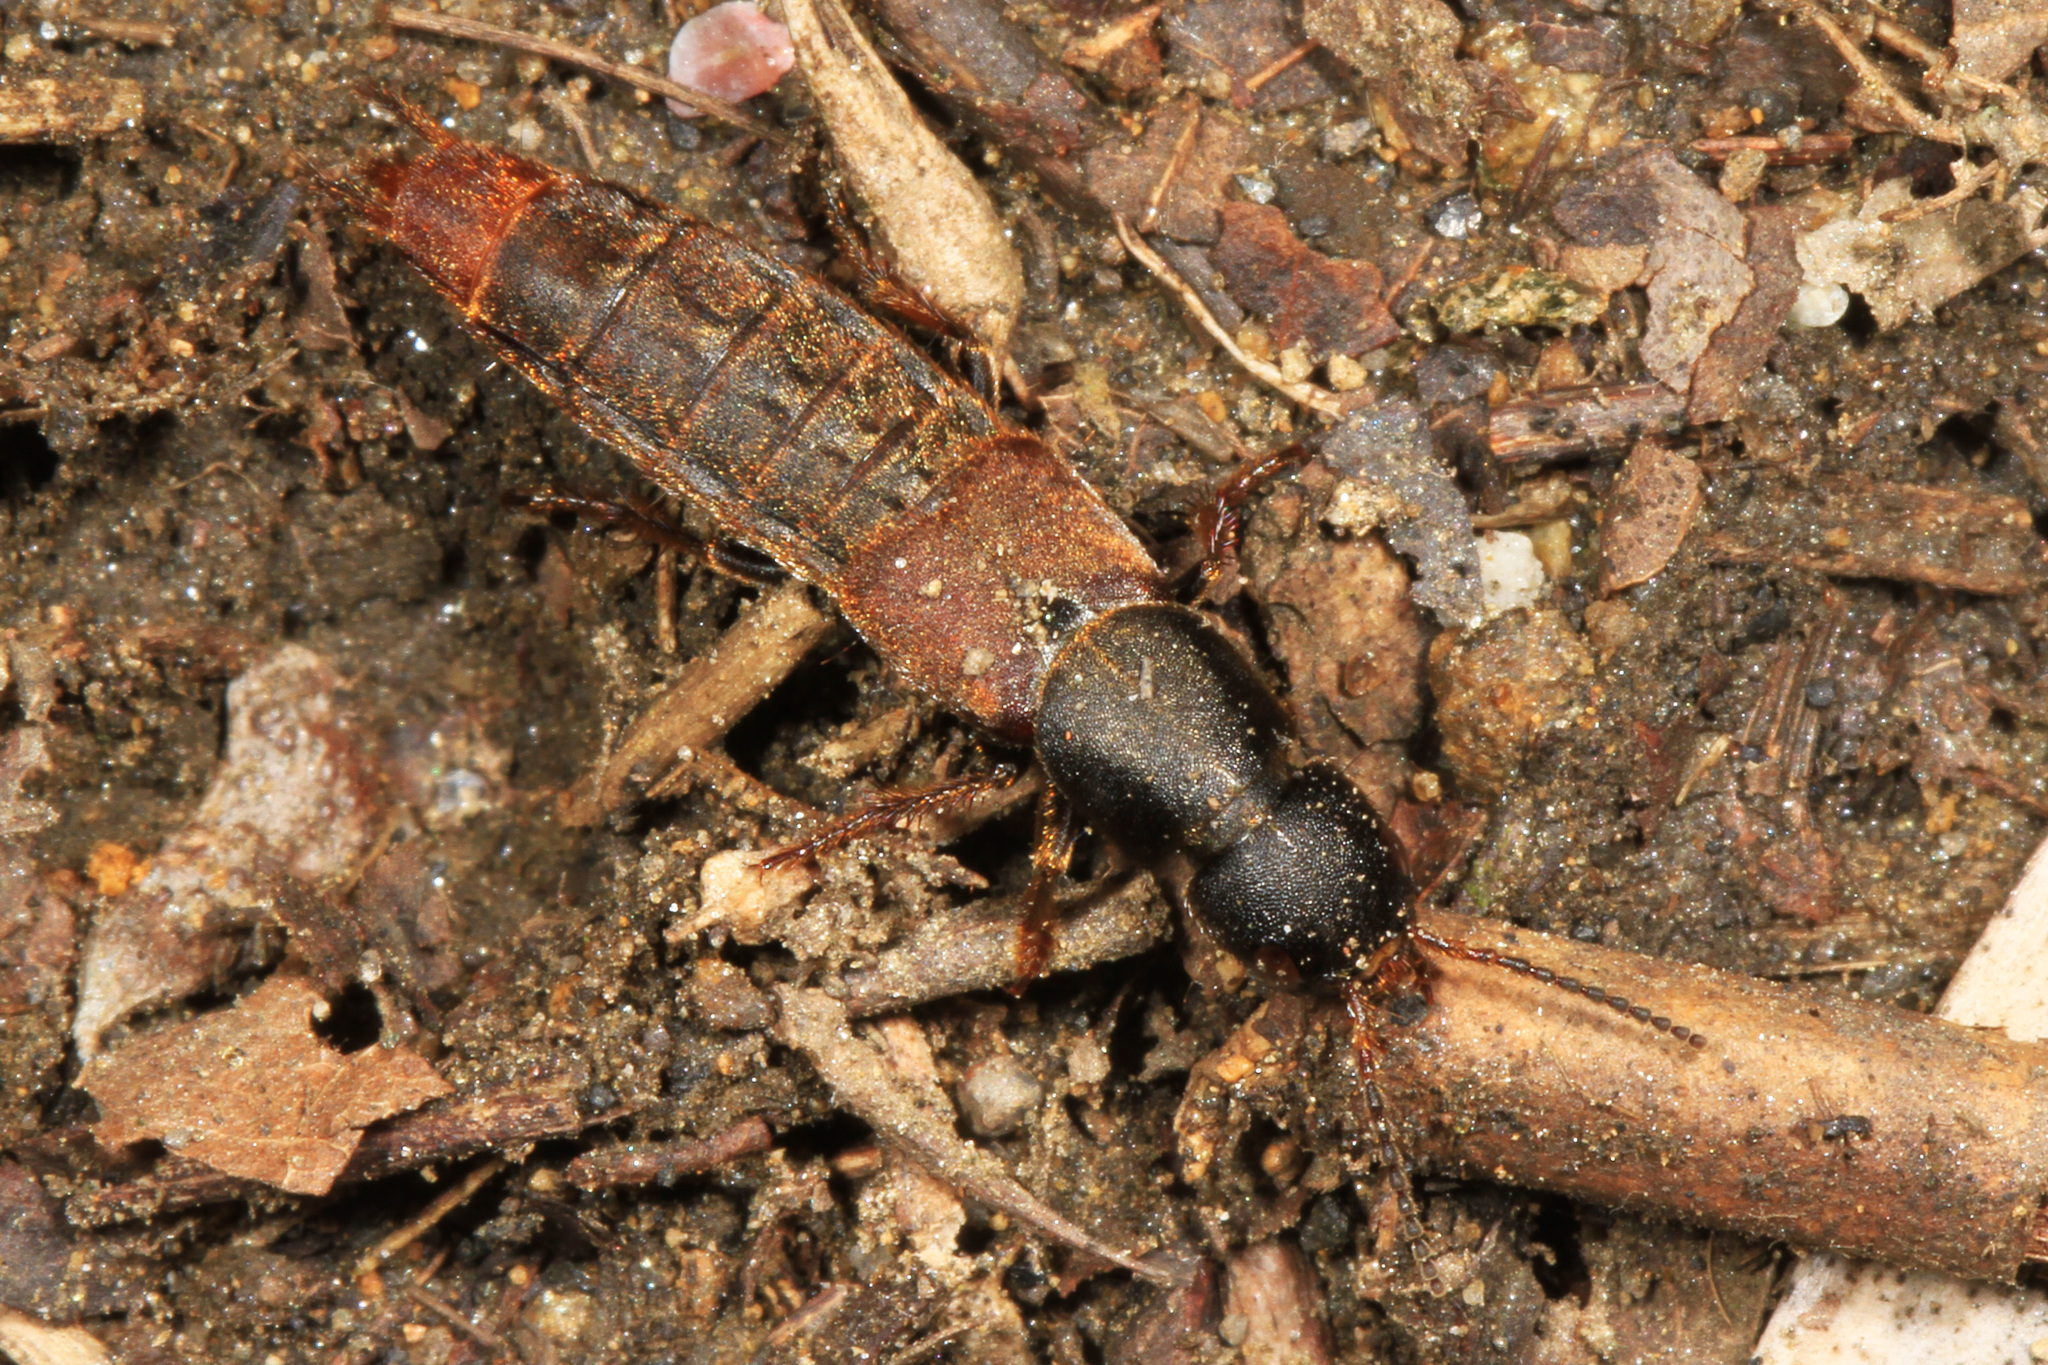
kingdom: Animalia
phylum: Arthropoda
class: Insecta
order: Coleoptera
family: Staphylinidae
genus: Platydracus
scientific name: Platydracus mysticus
